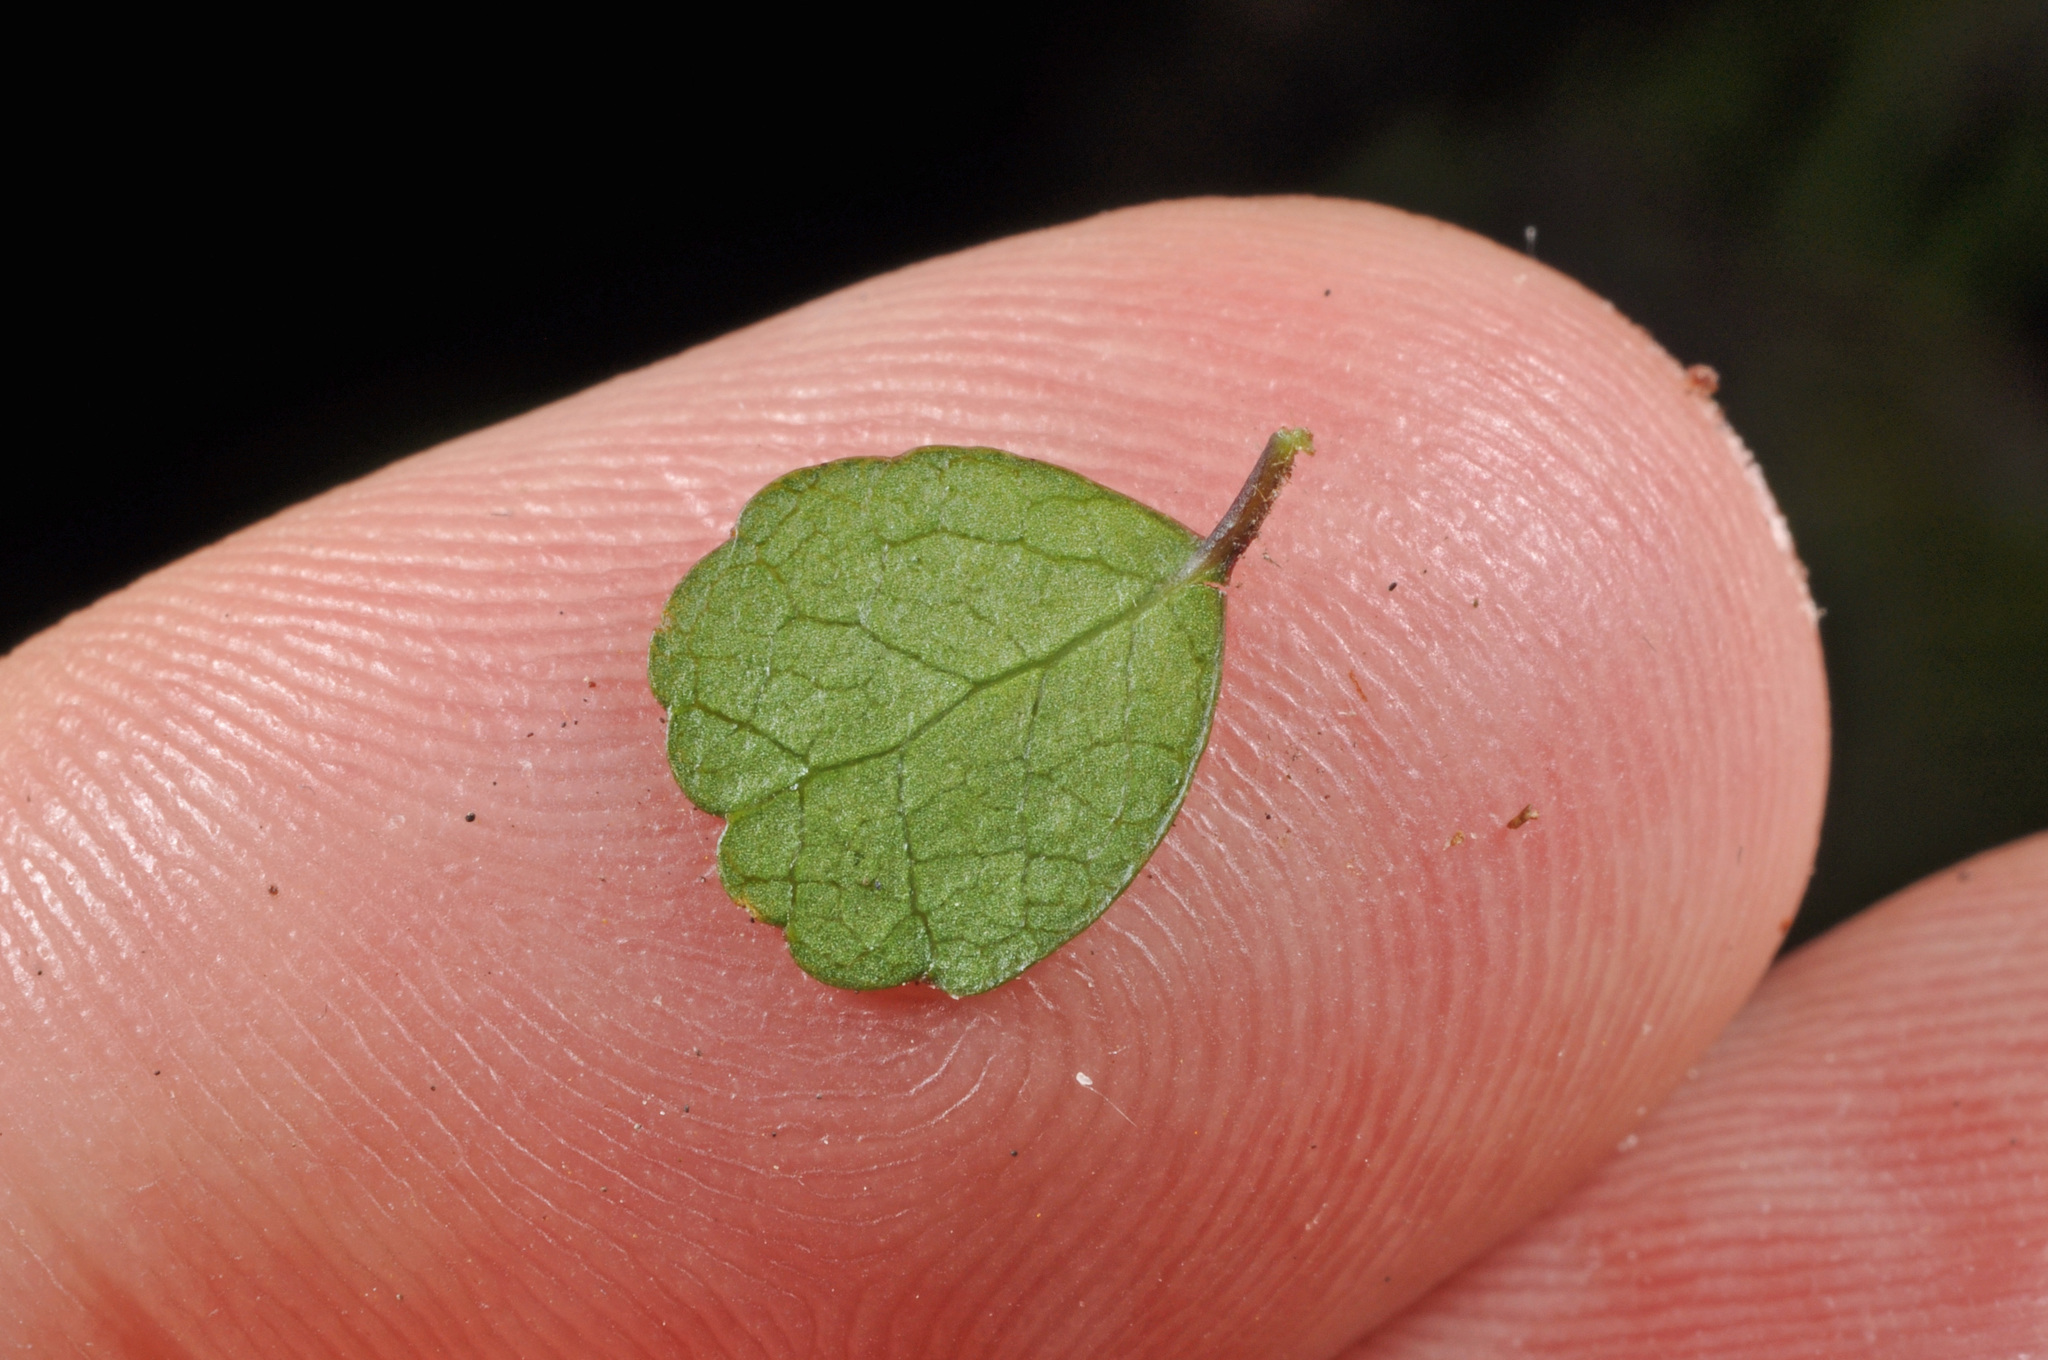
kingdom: Plantae
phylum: Tracheophyta
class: Magnoliopsida
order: Malpighiales
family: Violaceae
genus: Melicytus
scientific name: Melicytus micranthus
